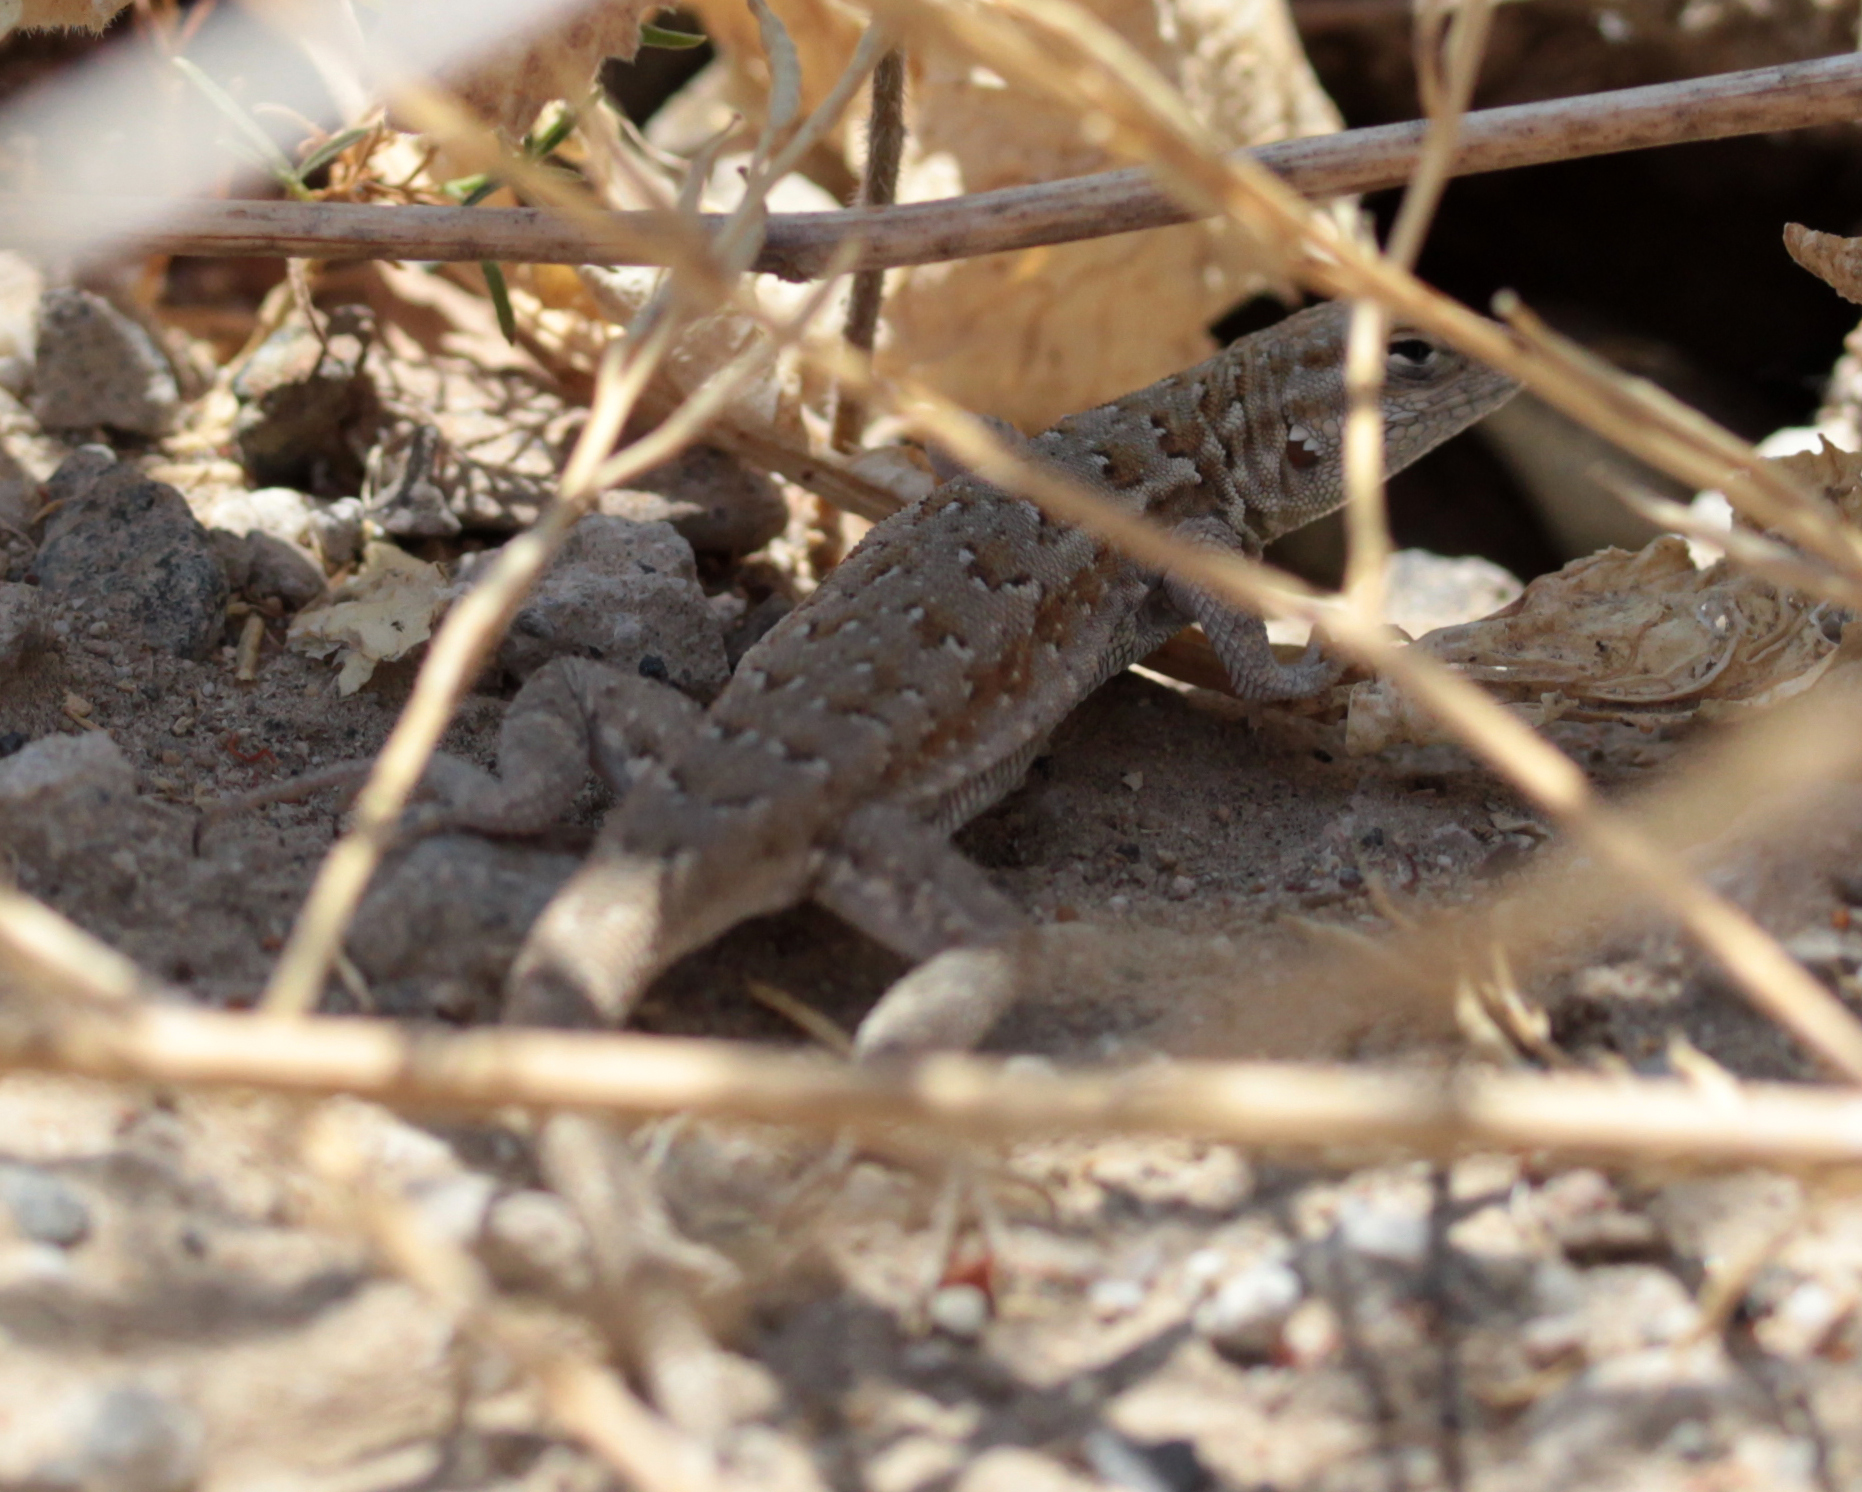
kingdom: Animalia
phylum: Chordata
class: Squamata
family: Phrynosomatidae
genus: Uta
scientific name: Uta stansburiana
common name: Side-blotched lizard
